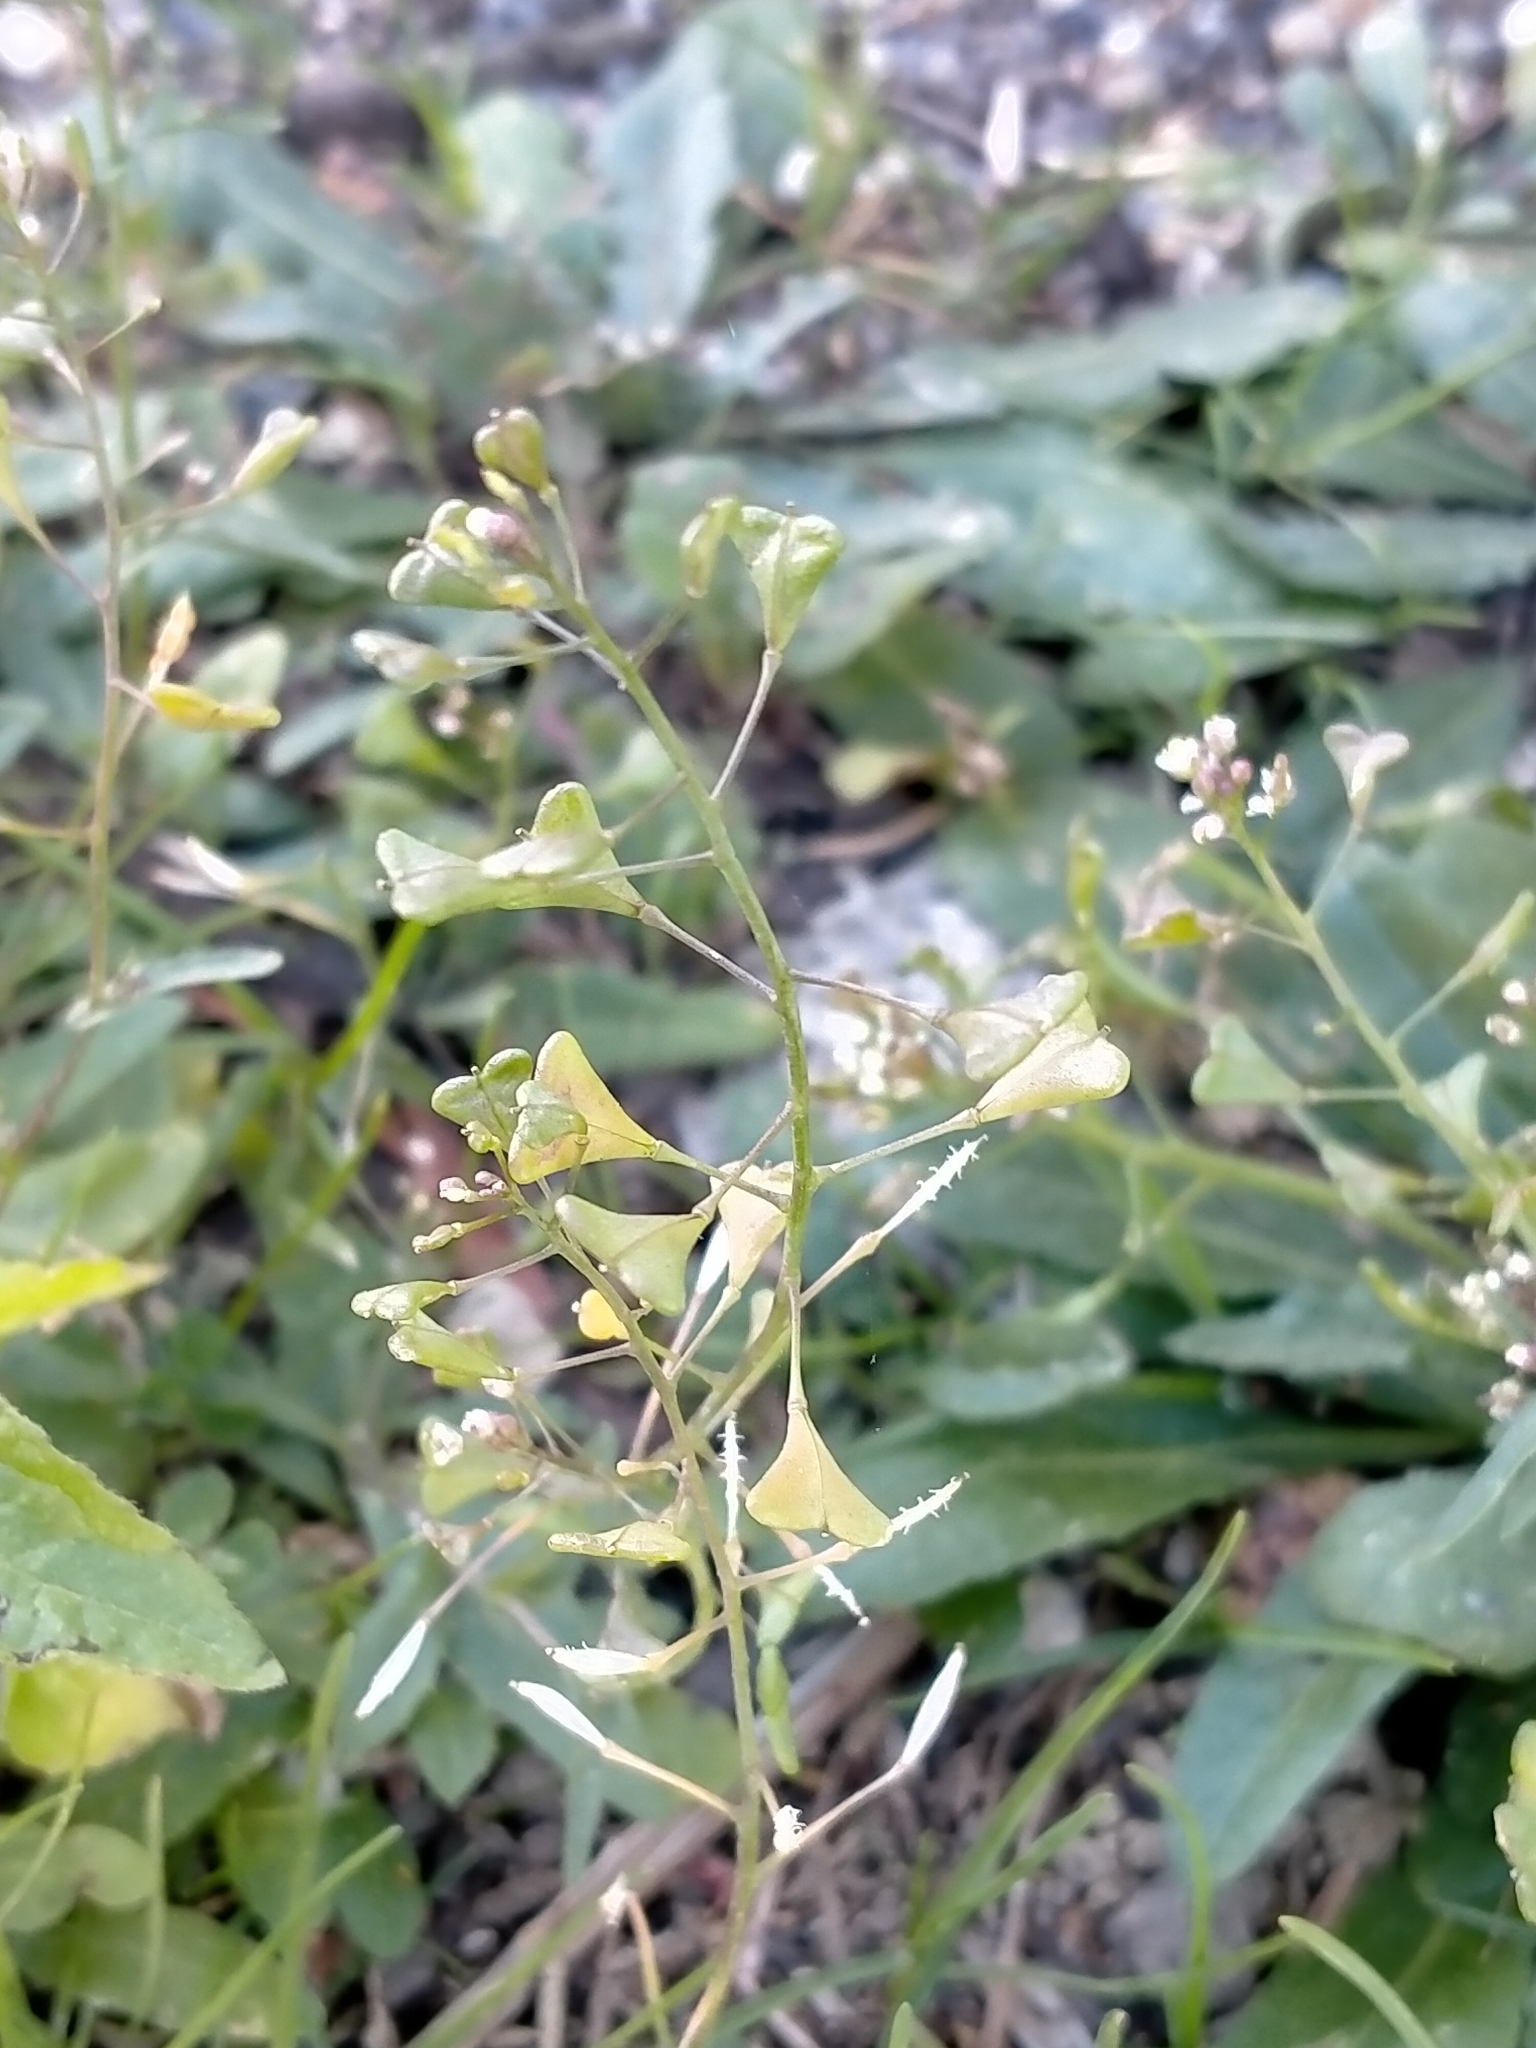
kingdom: Plantae
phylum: Tracheophyta
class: Magnoliopsida
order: Brassicales
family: Brassicaceae
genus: Capsella
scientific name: Capsella bursa-pastoris
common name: Shepherd's purse
